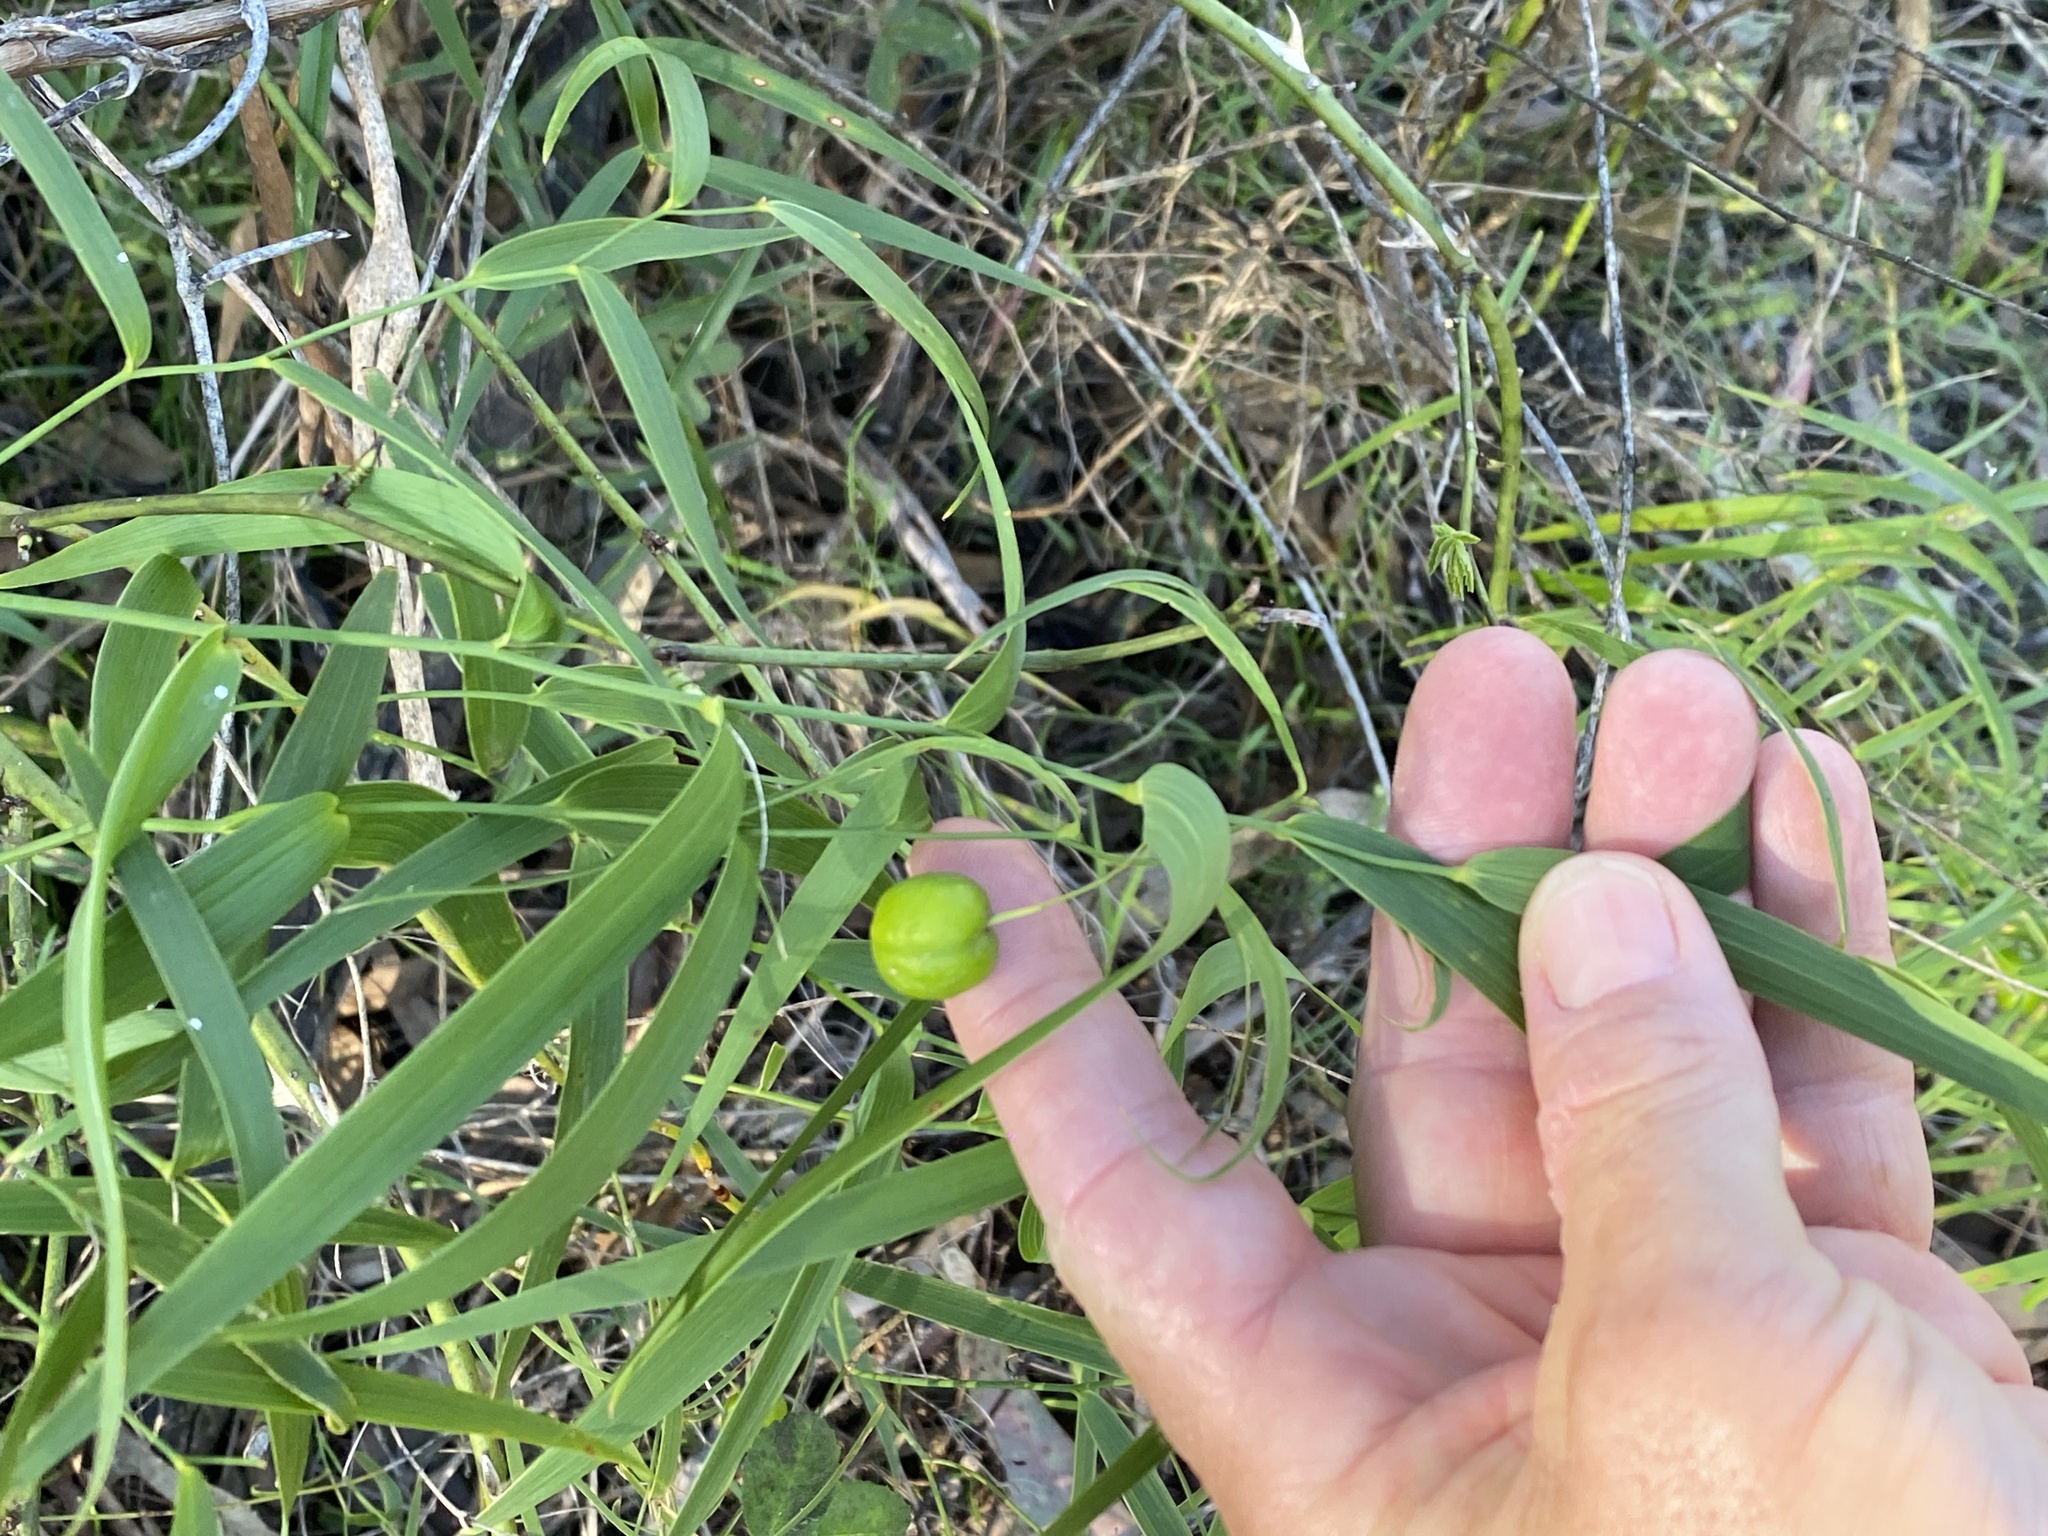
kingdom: Plantae
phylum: Tracheophyta
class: Liliopsida
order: Asparagales
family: Asparagaceae
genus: Eustrephus
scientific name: Eustrephus latifolius
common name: Orangevine
